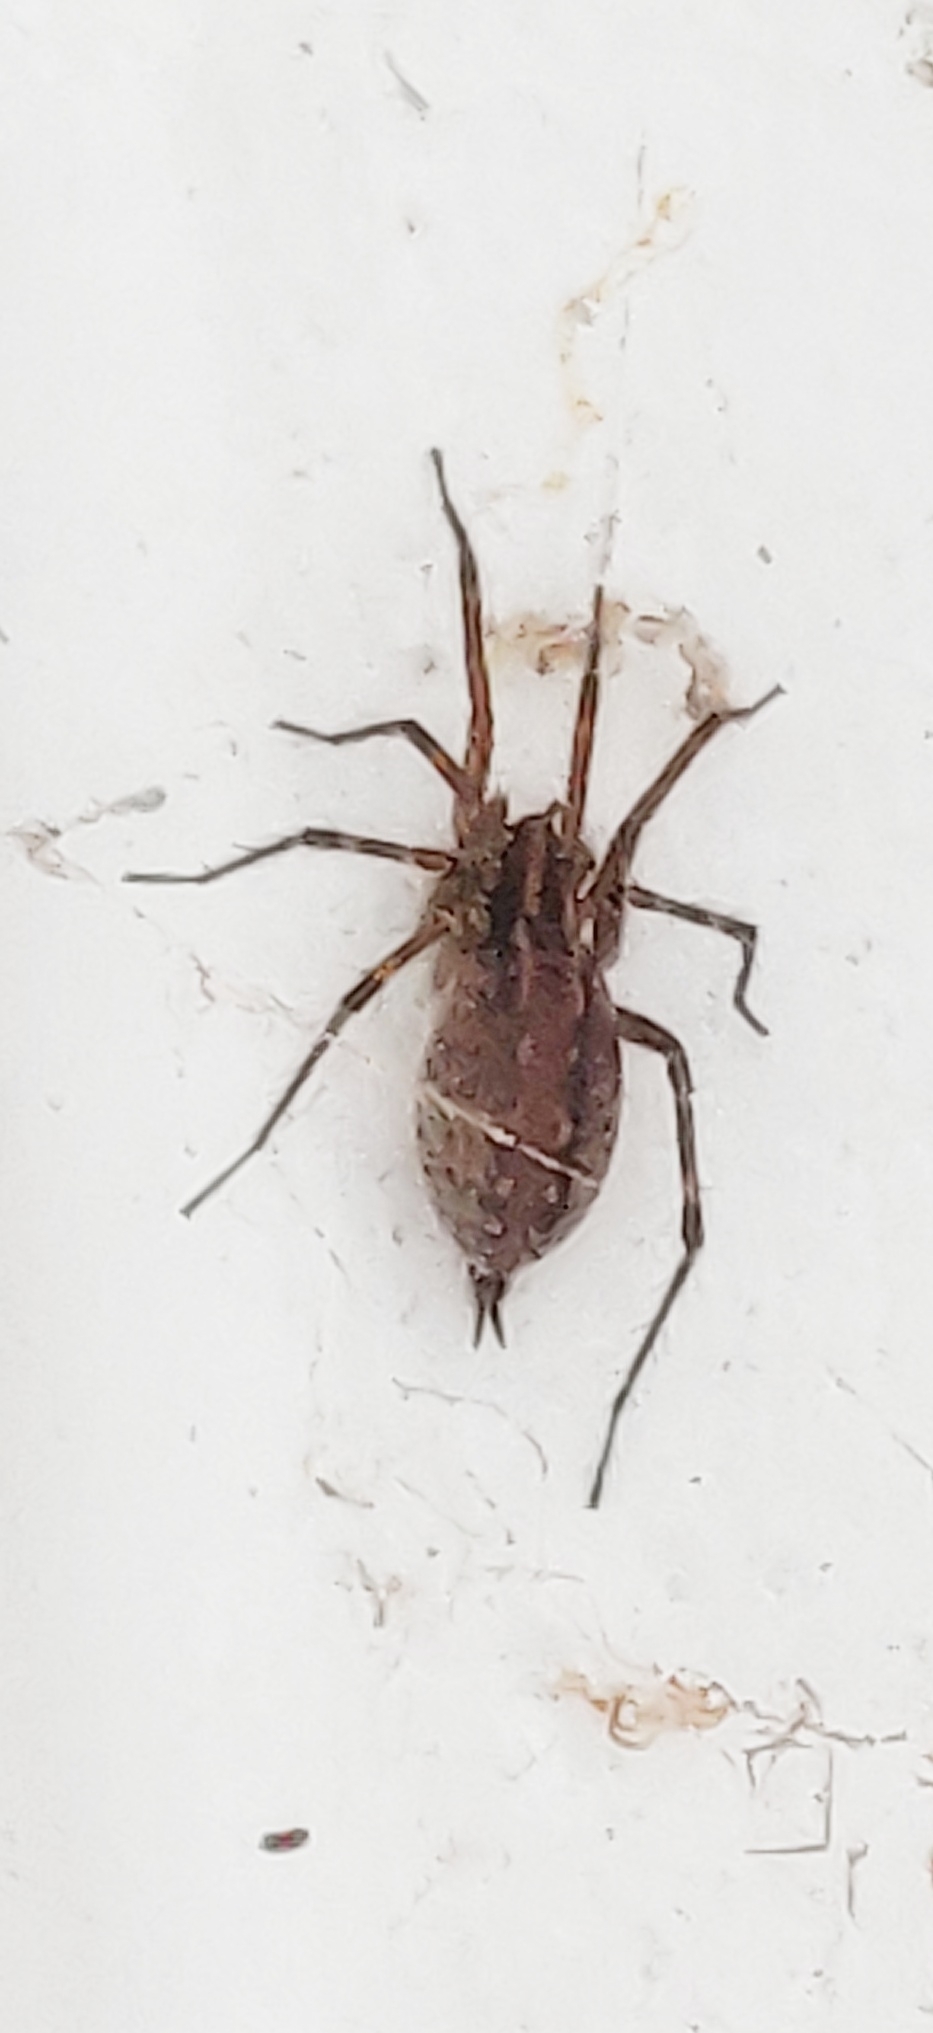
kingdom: Animalia
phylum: Arthropoda
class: Arachnida
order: Araneae
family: Agelenidae
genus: Agelenopsis
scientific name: Agelenopsis
